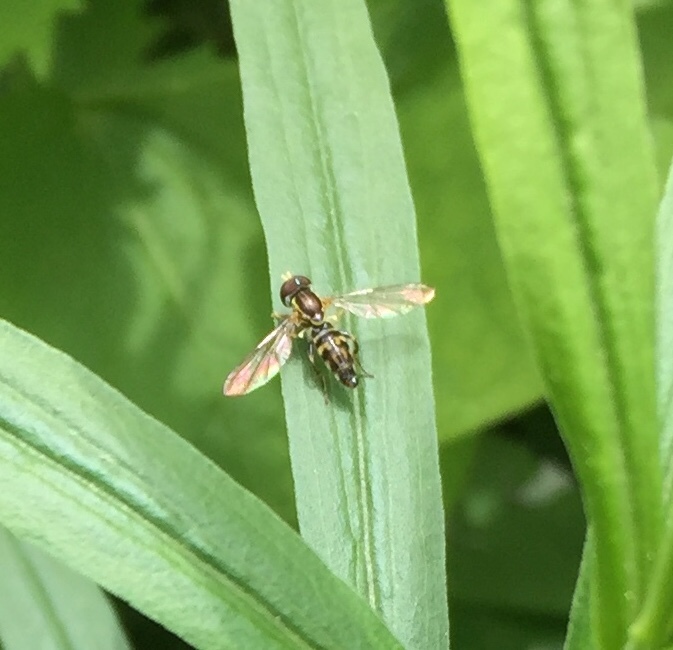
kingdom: Animalia
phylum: Arthropoda
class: Insecta
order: Diptera
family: Syrphidae
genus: Toxomerus
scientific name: Toxomerus geminatus
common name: Eastern calligrapher
